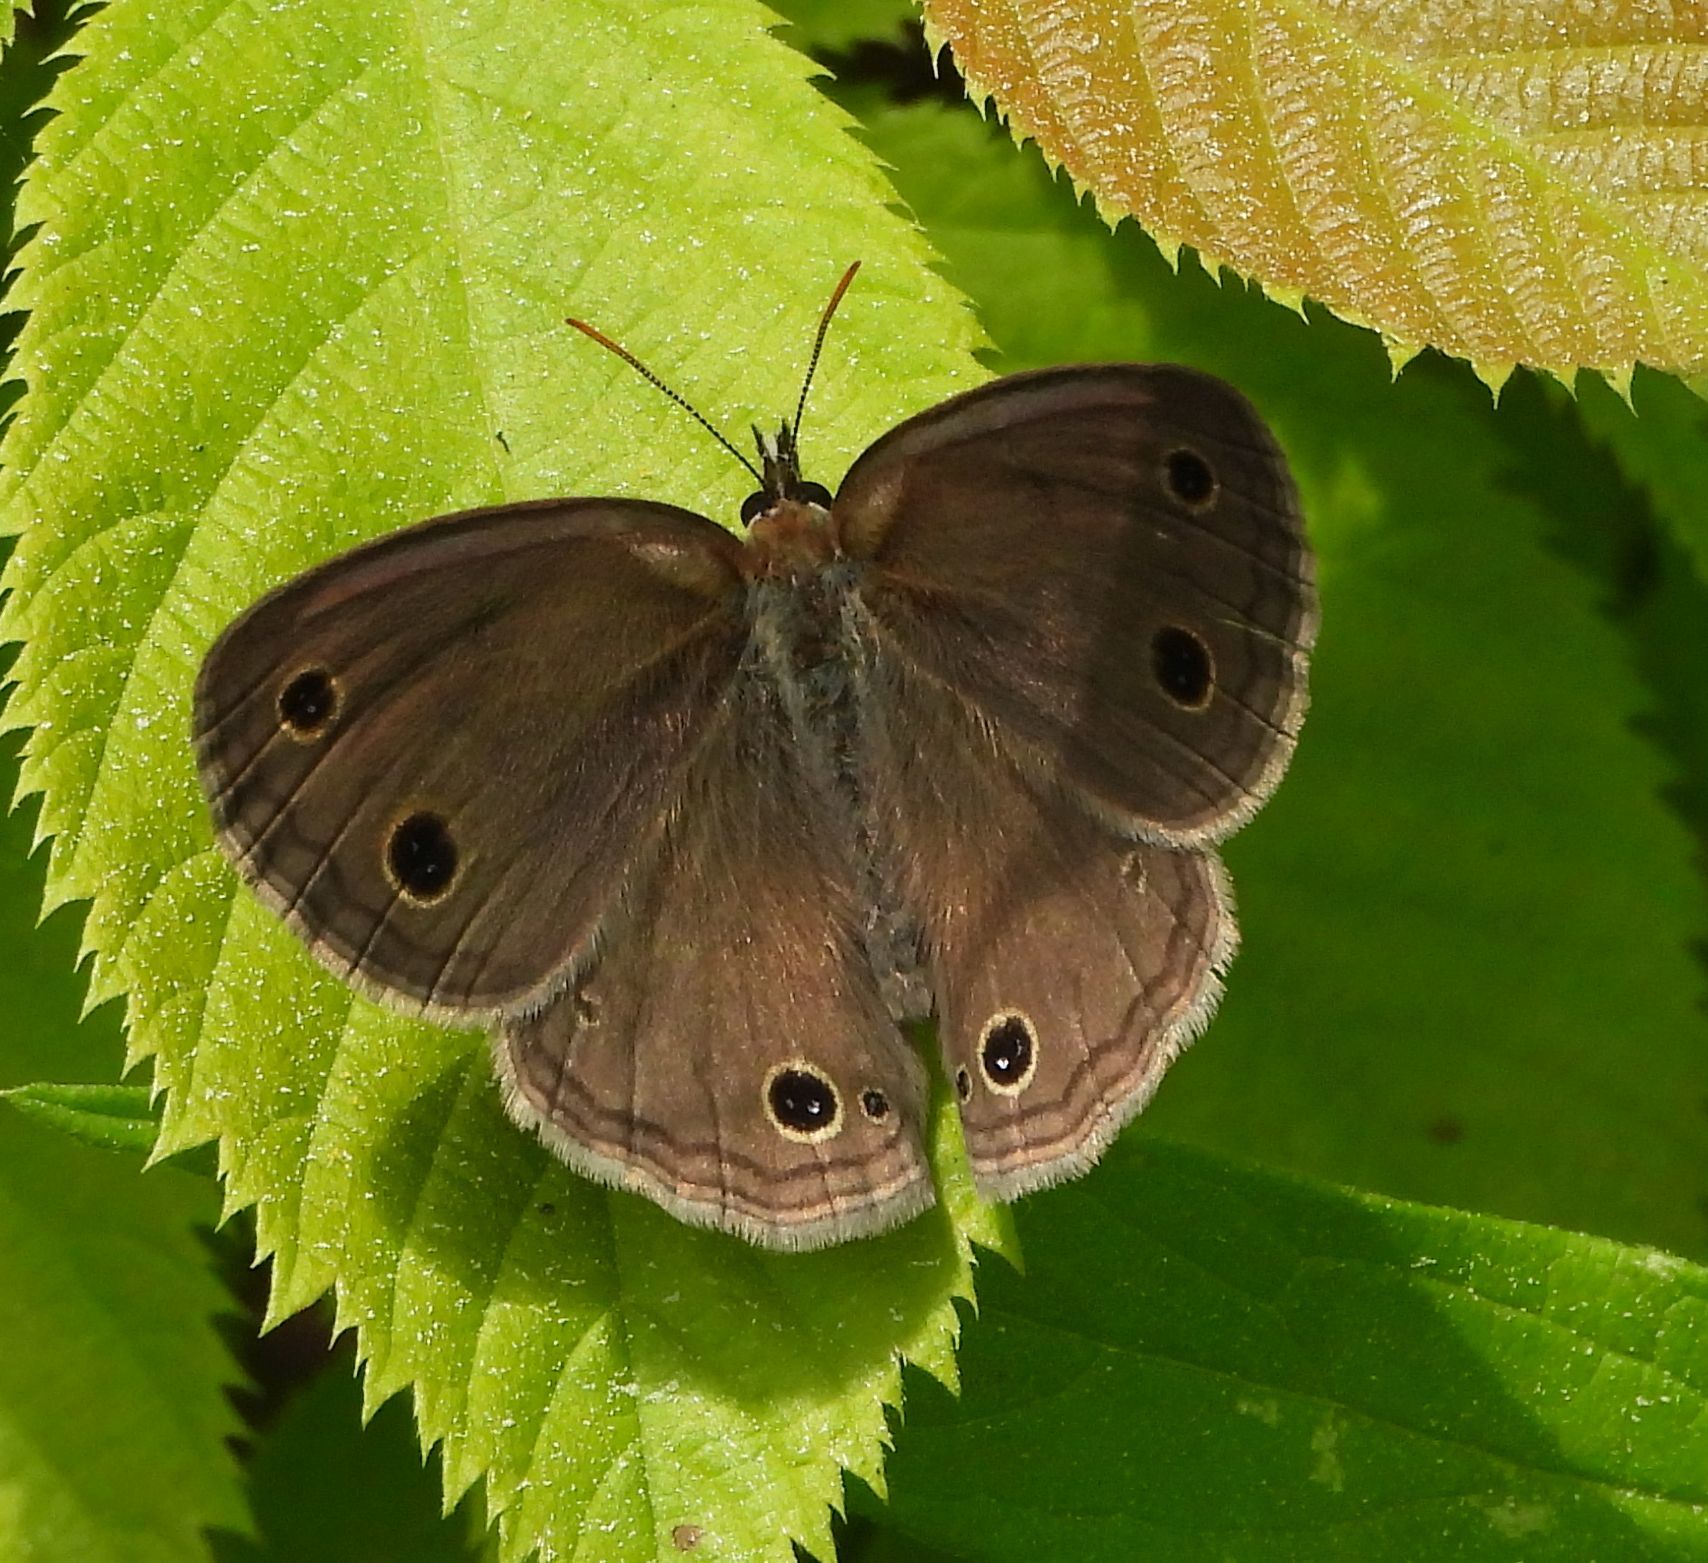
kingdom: Animalia
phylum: Arthropoda
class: Insecta
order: Lepidoptera
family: Nymphalidae
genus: Euptychia
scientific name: Euptychia cymela
